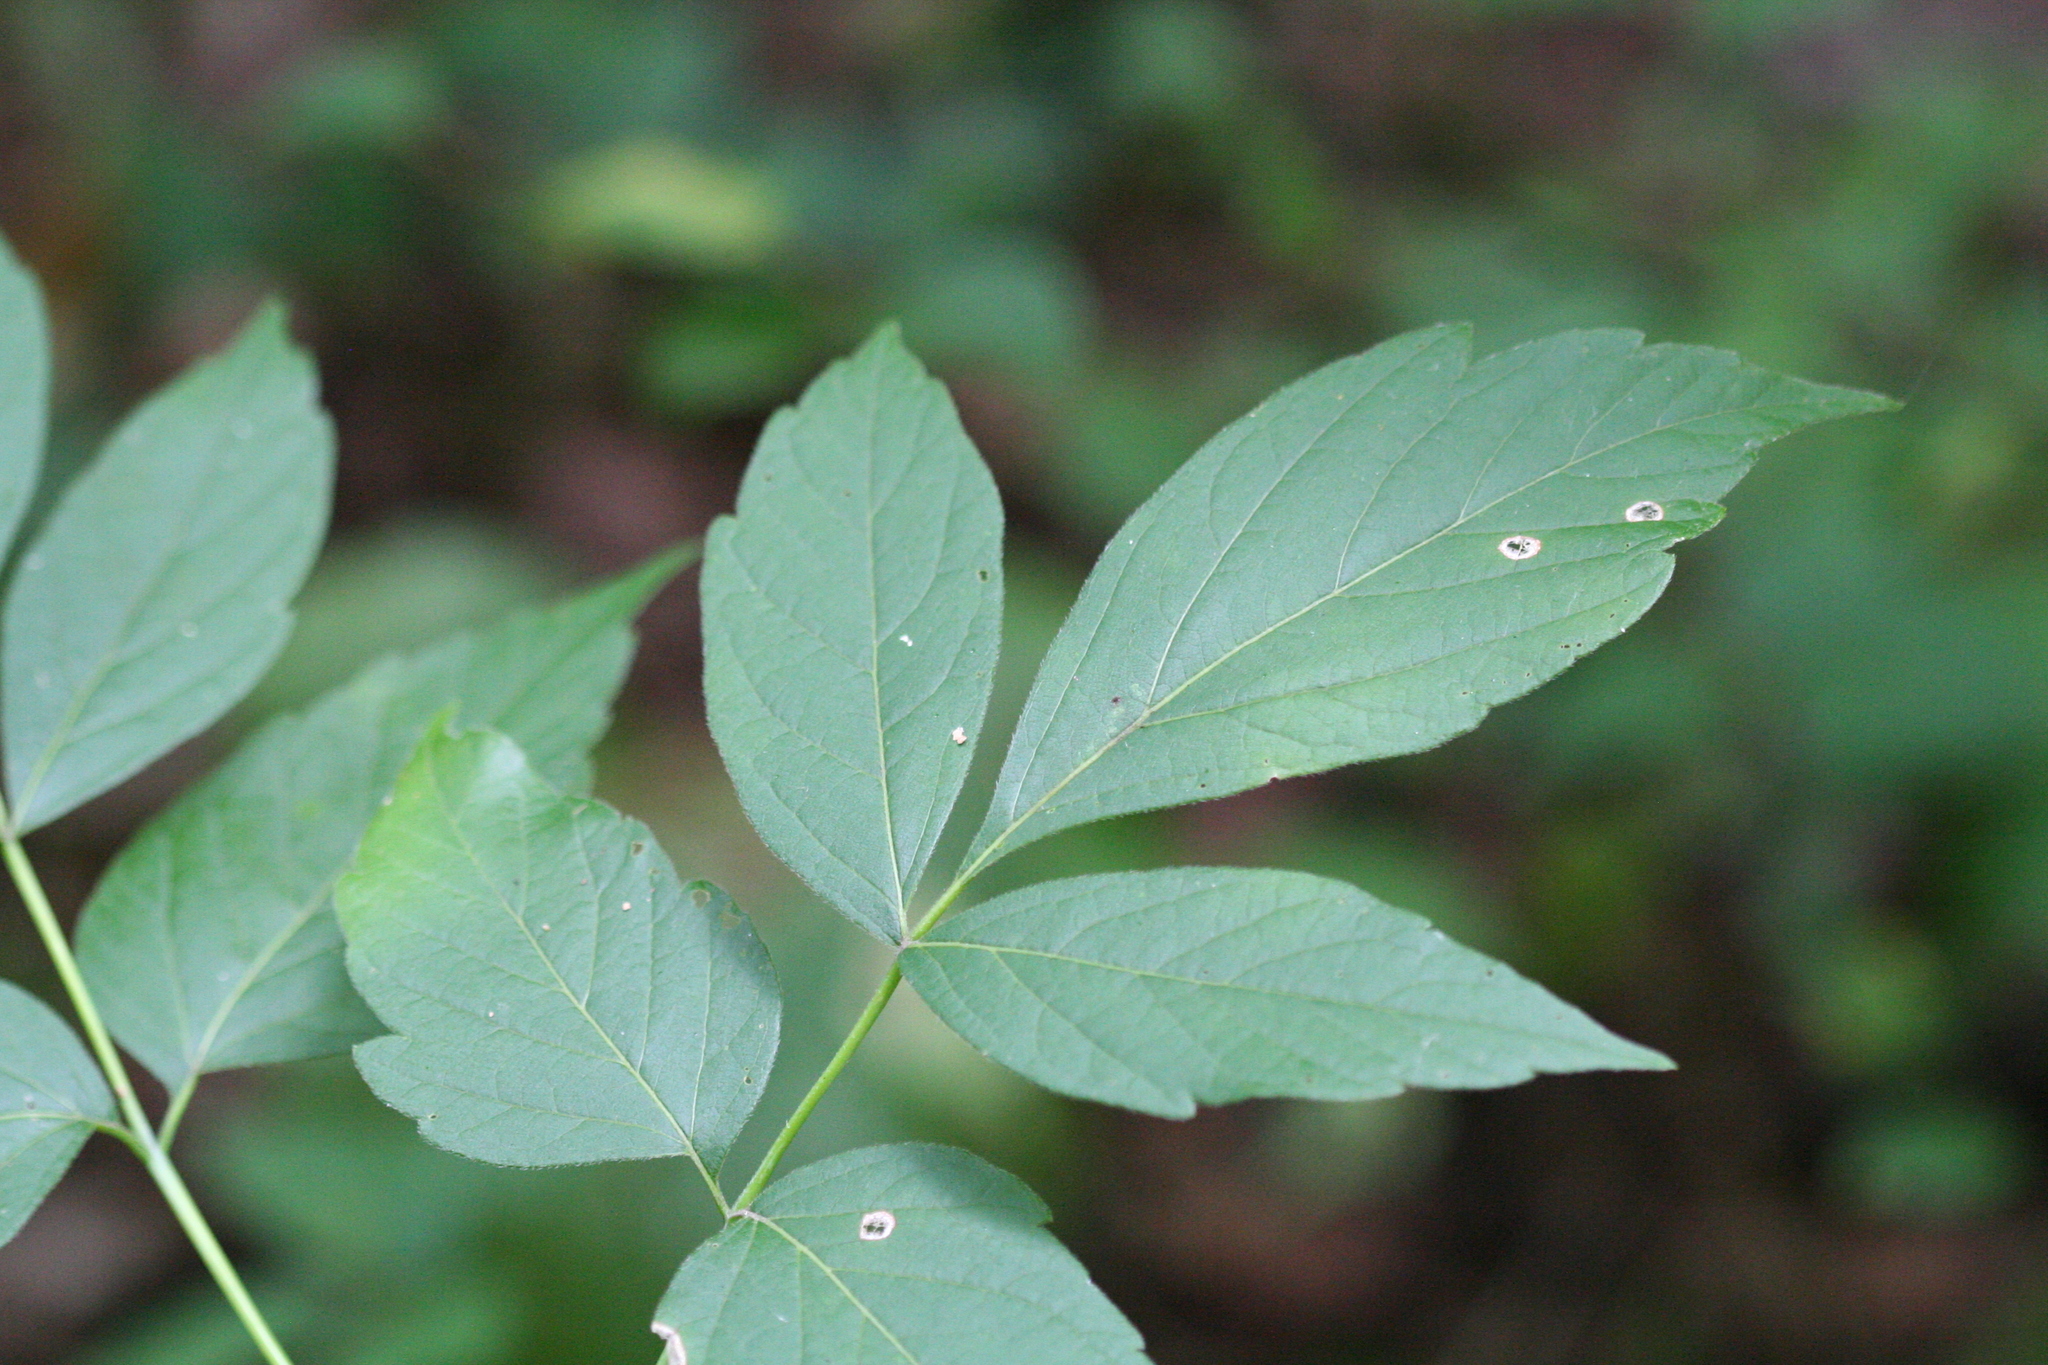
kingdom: Plantae
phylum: Tracheophyta
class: Magnoliopsida
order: Sapindales
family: Sapindaceae
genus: Acer
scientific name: Acer negundo
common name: Ashleaf maple
